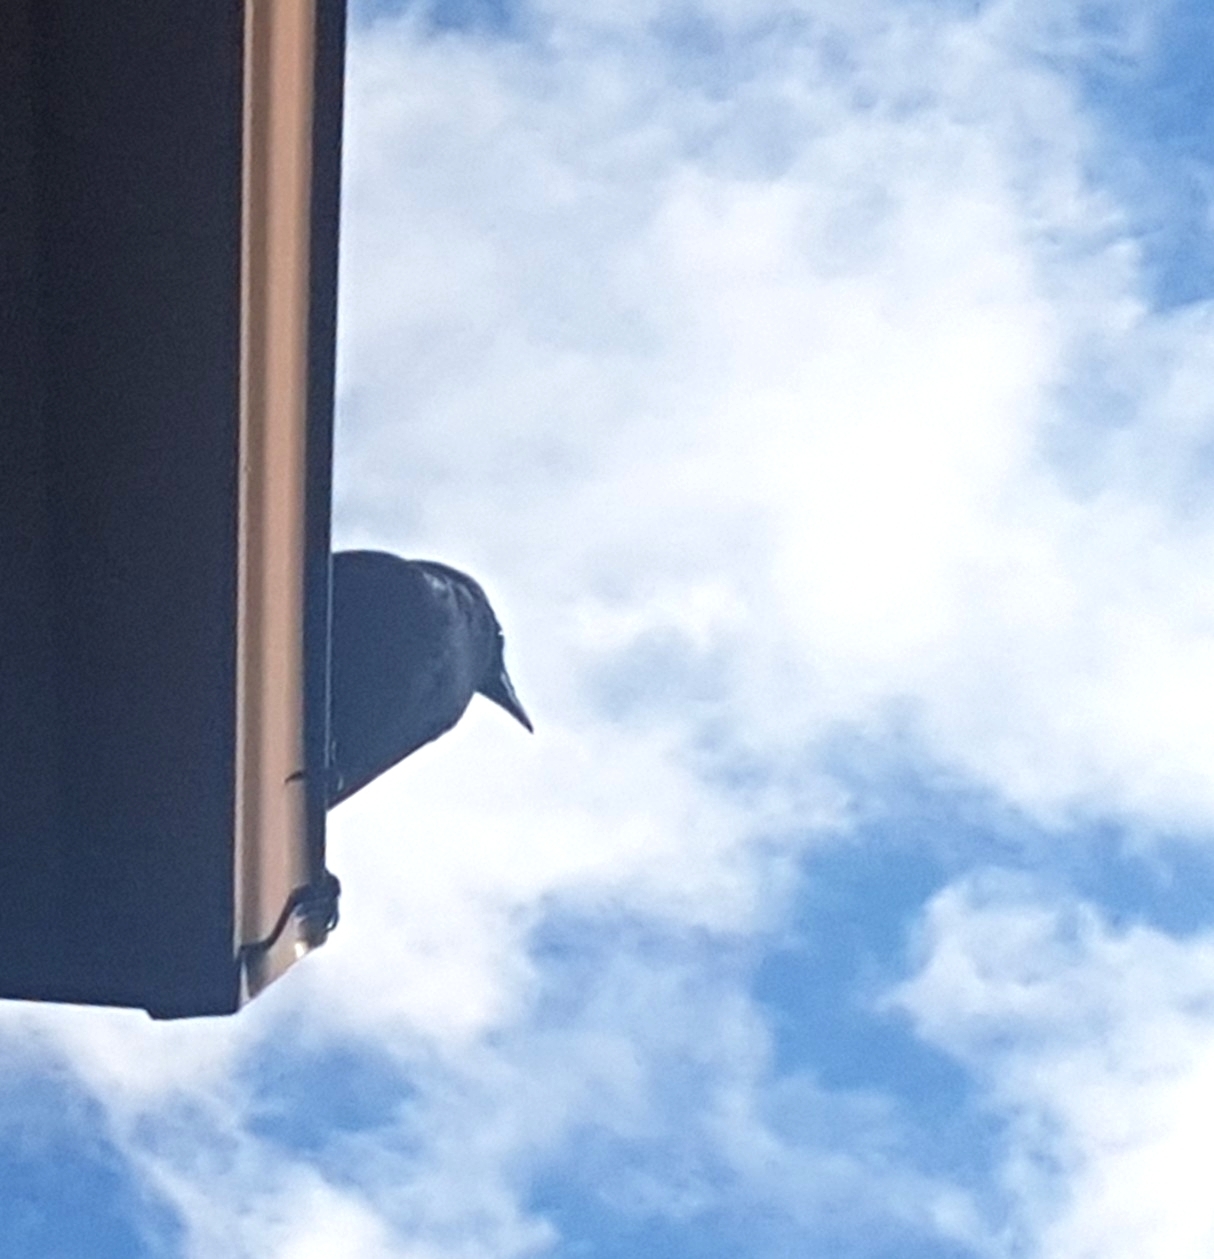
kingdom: Animalia
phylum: Chordata
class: Aves
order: Passeriformes
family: Corvidae
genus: Corvus
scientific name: Corvus brachyrhynchos
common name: American crow
